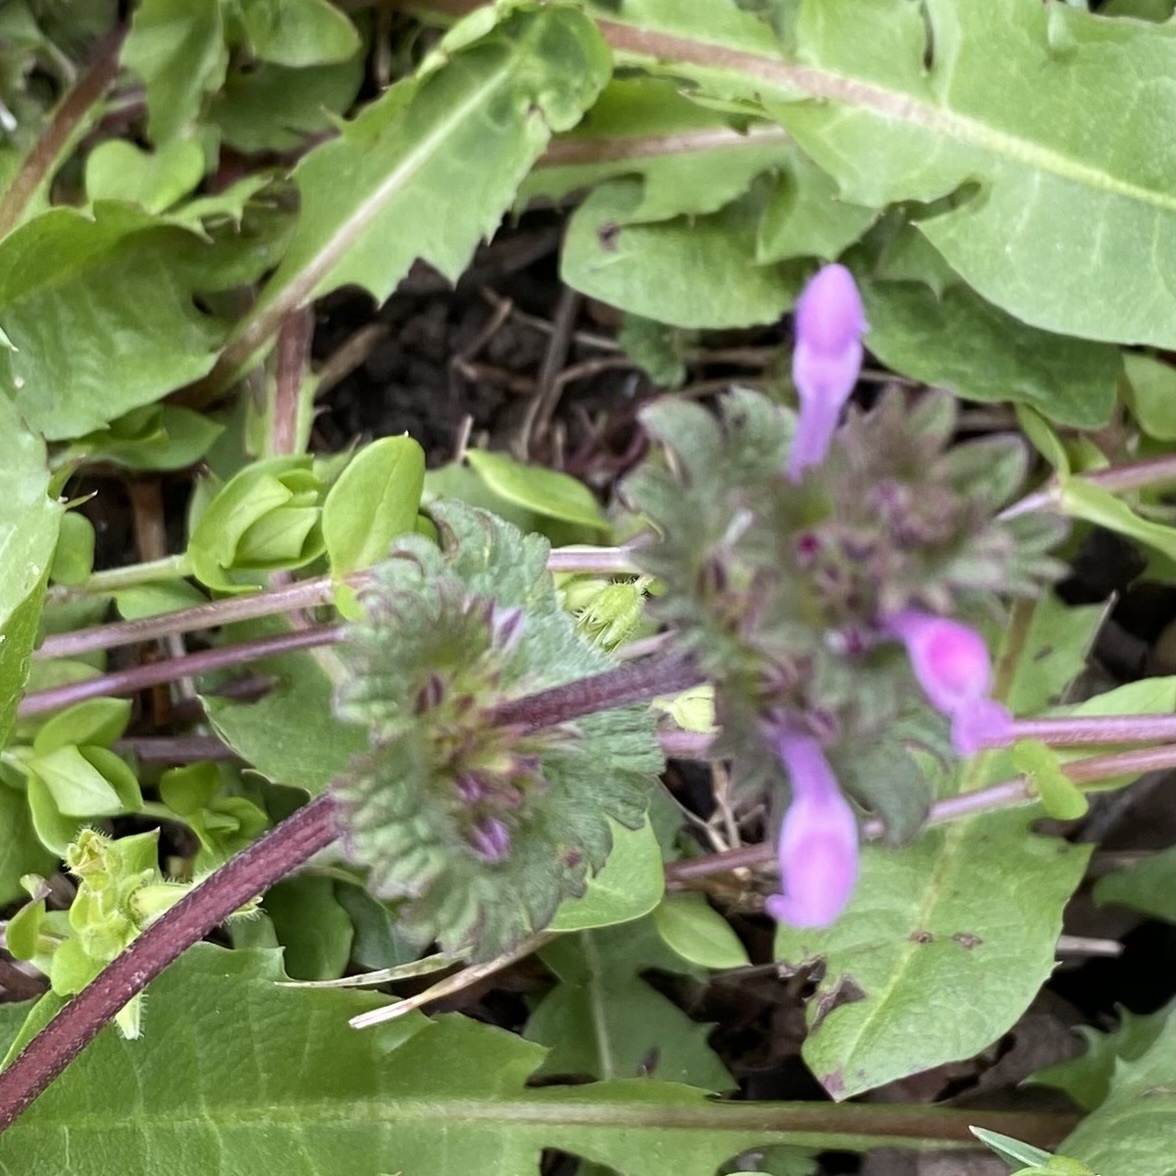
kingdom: Plantae
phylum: Tracheophyta
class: Magnoliopsida
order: Lamiales
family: Lamiaceae
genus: Lamium
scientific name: Lamium amplexicaule
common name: Henbit dead-nettle
